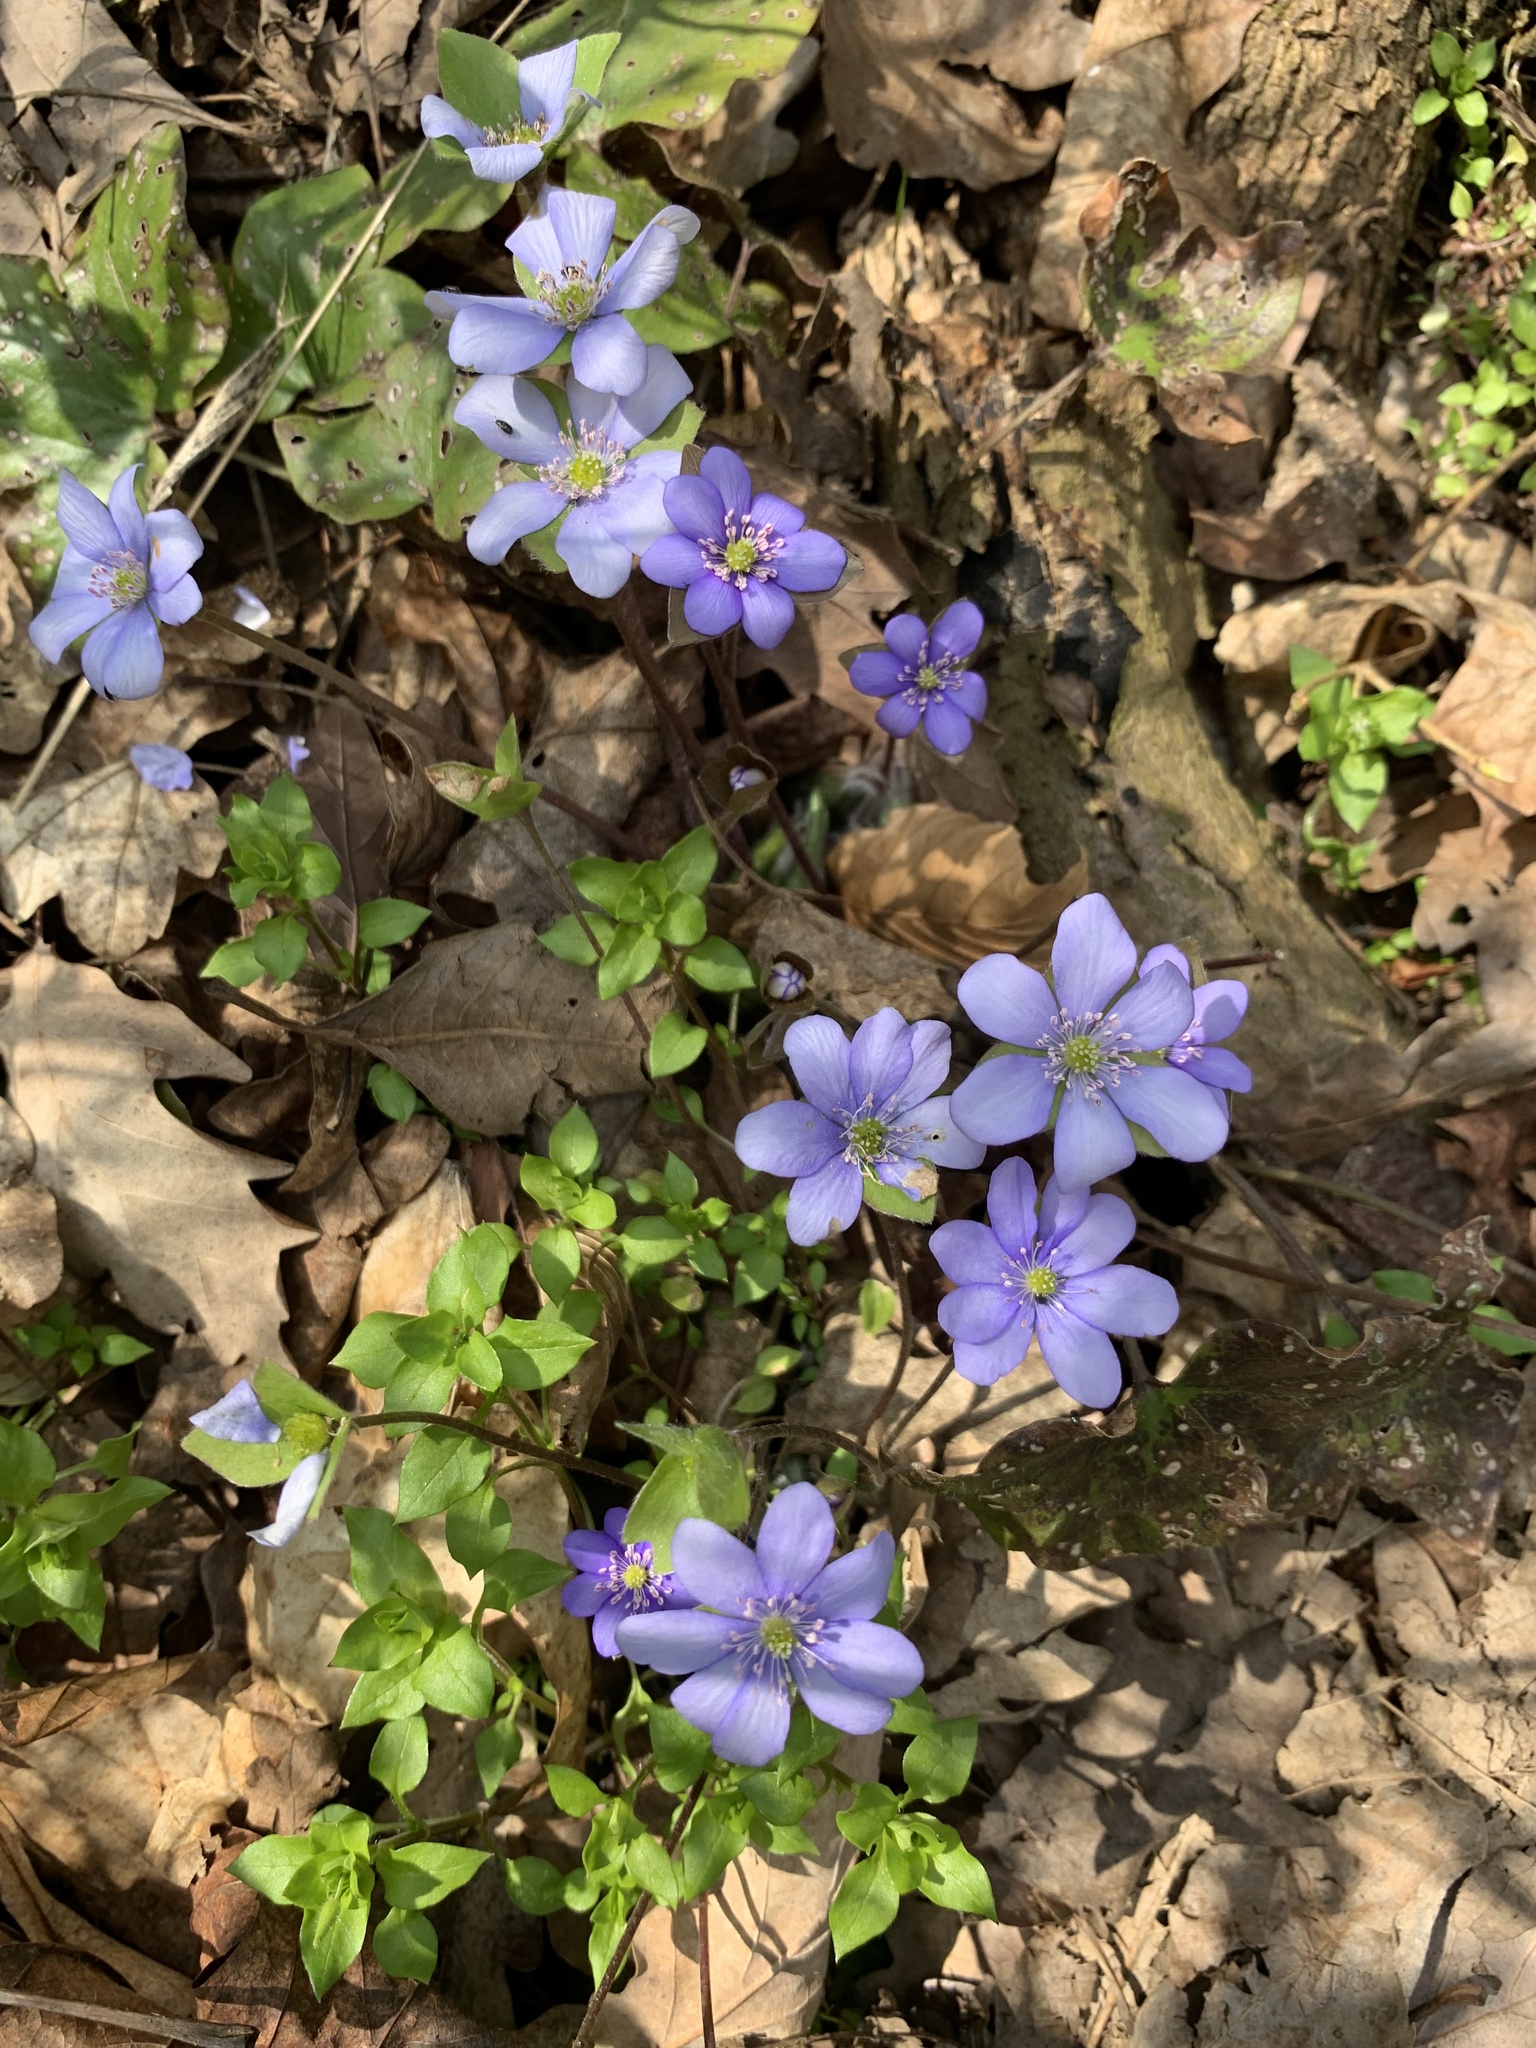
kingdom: Plantae
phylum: Tracheophyta
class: Magnoliopsida
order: Ranunculales
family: Ranunculaceae
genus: Hepatica
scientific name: Hepatica nobilis
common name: Liverleaf
